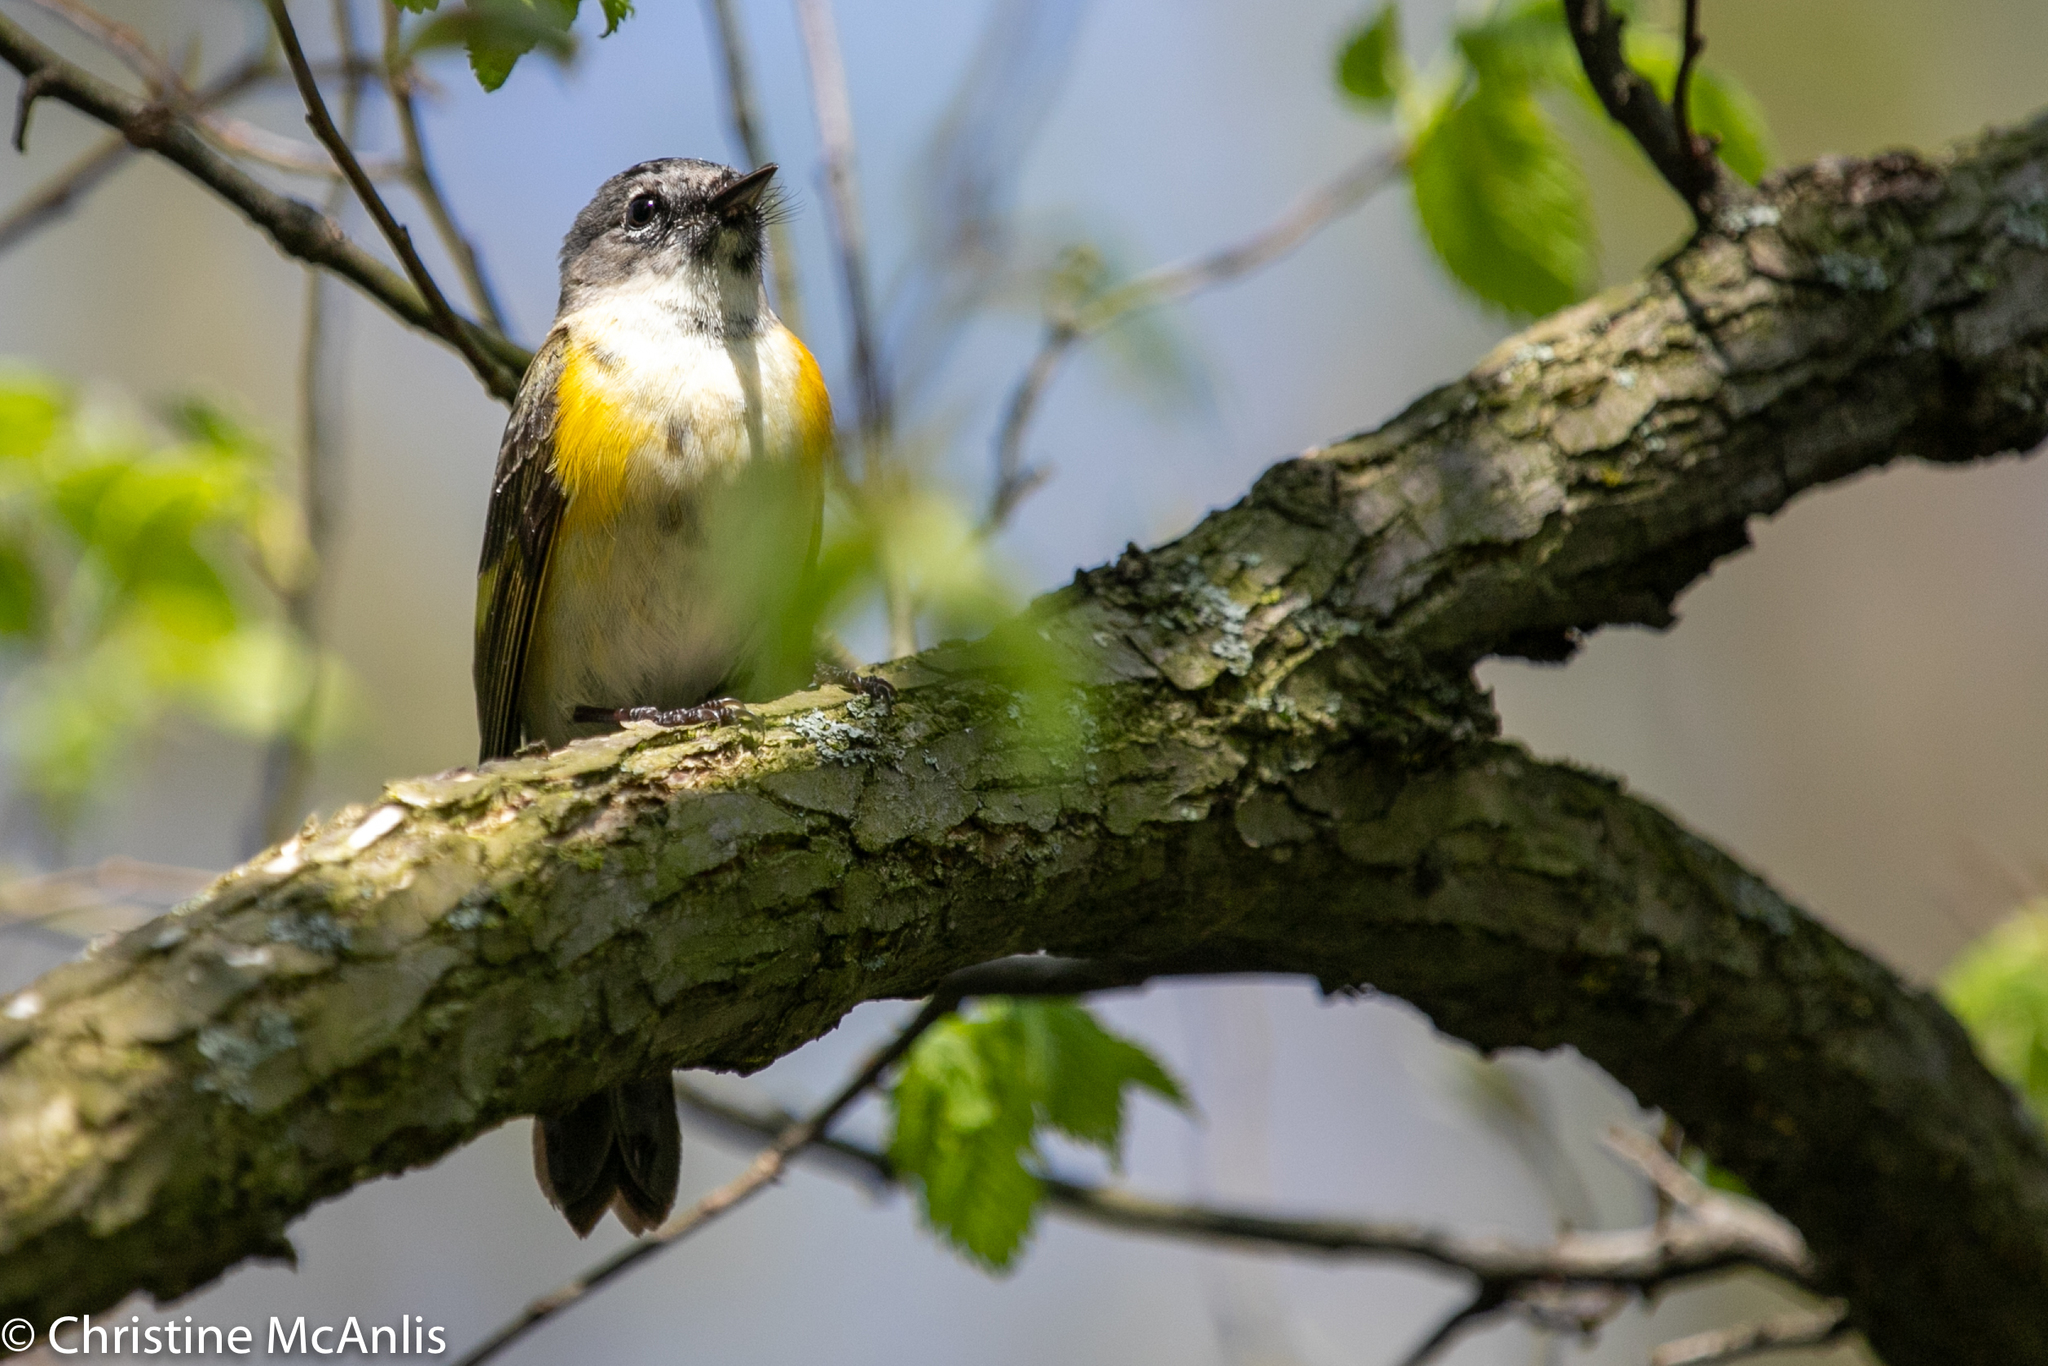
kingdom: Animalia
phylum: Chordata
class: Aves
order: Passeriformes
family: Parulidae
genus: Setophaga
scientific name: Setophaga ruticilla
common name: American redstart
